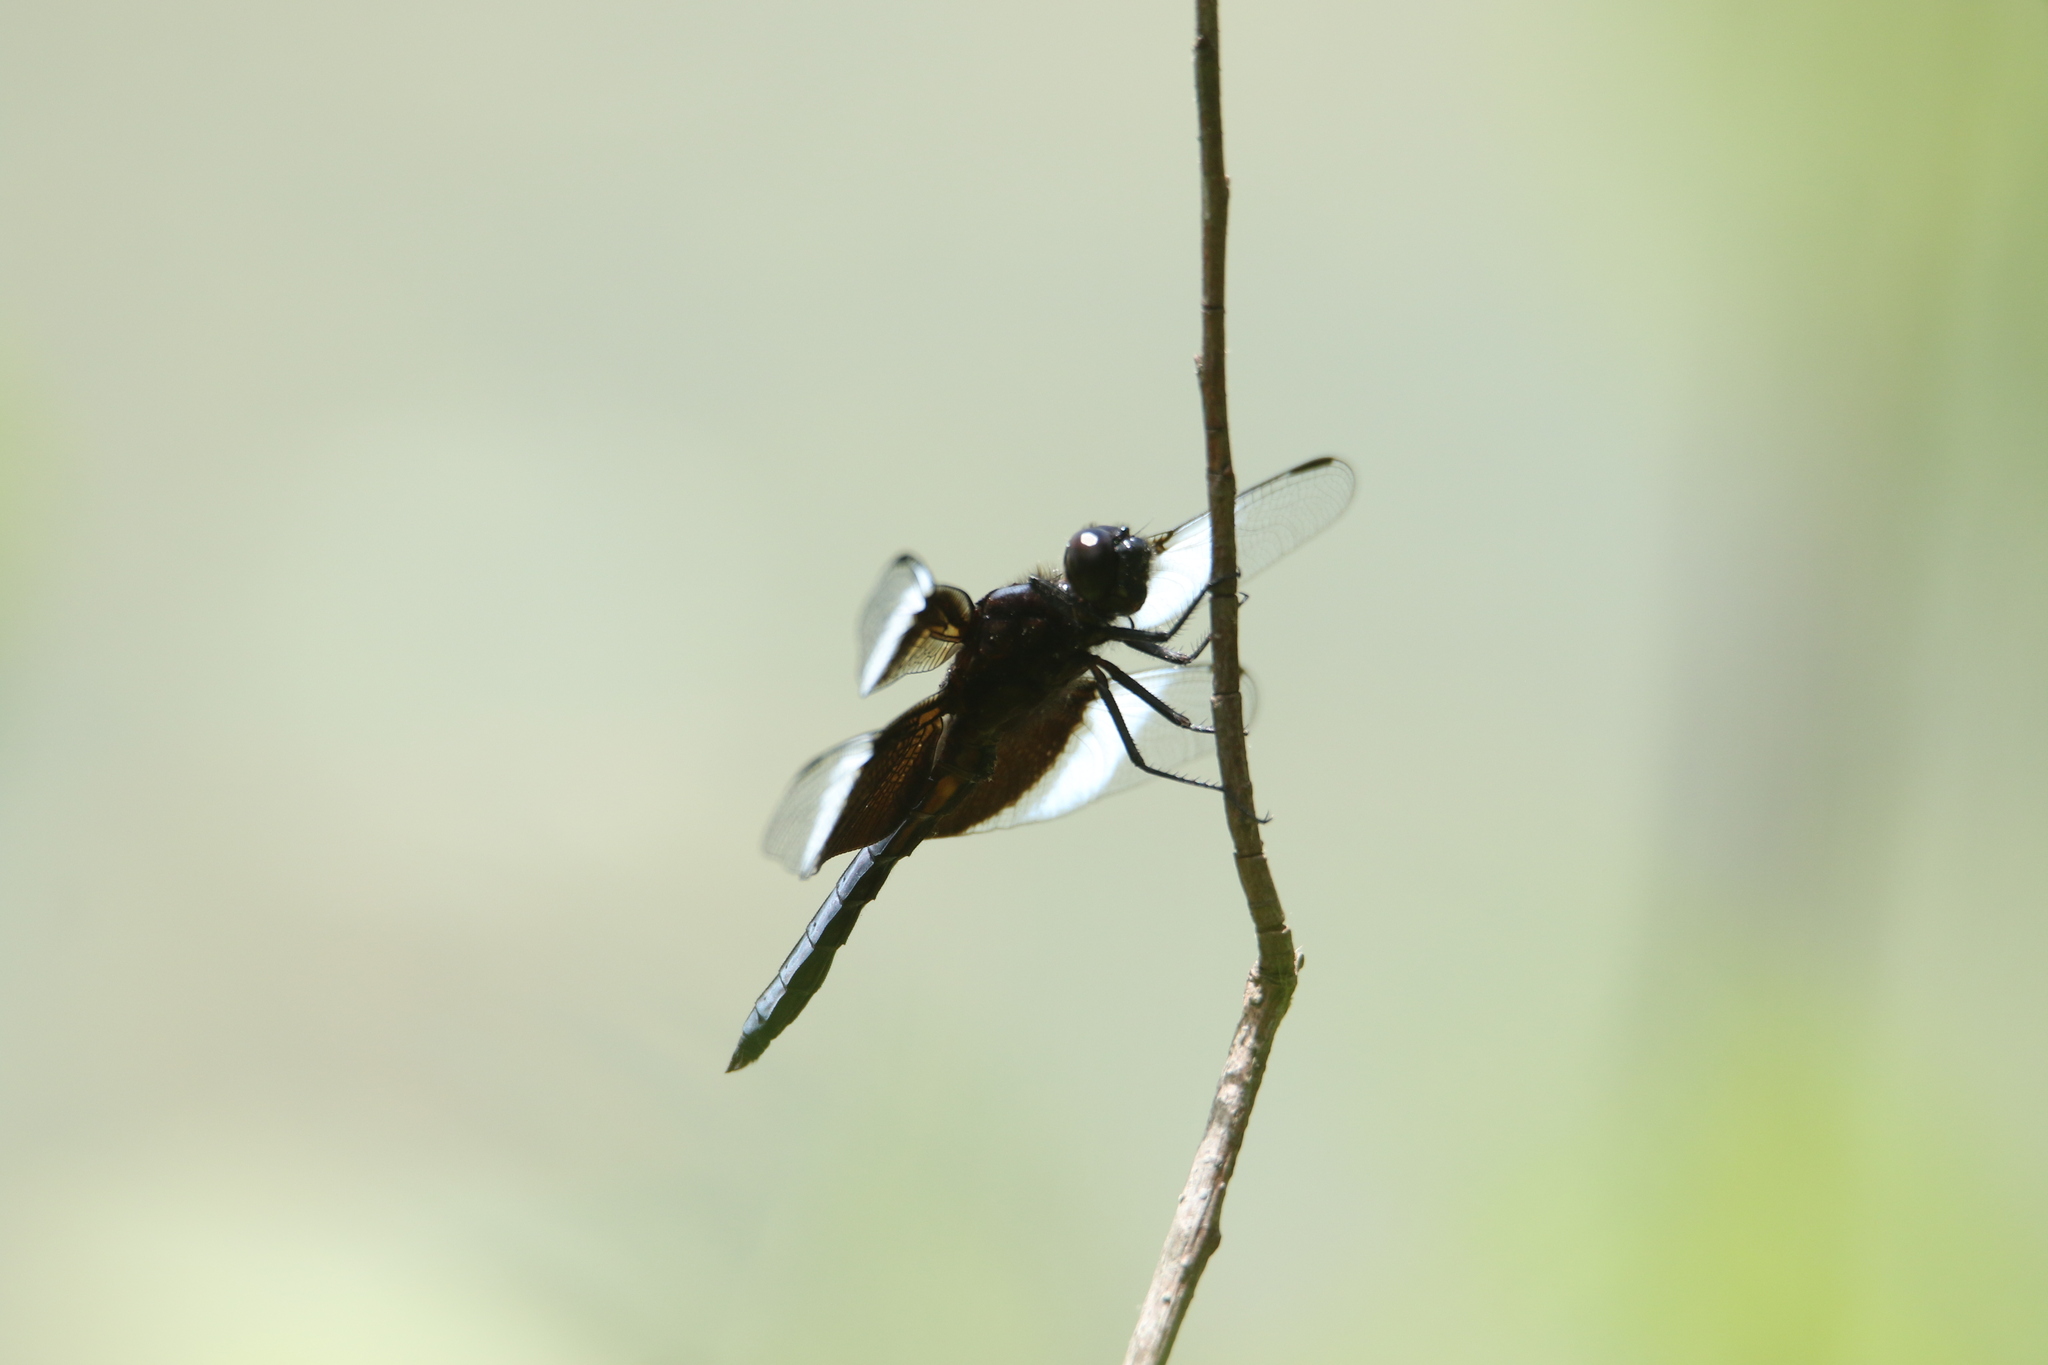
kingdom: Animalia
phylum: Arthropoda
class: Insecta
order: Odonata
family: Libellulidae
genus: Libellula
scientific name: Libellula luctuosa
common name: Widow skimmer
